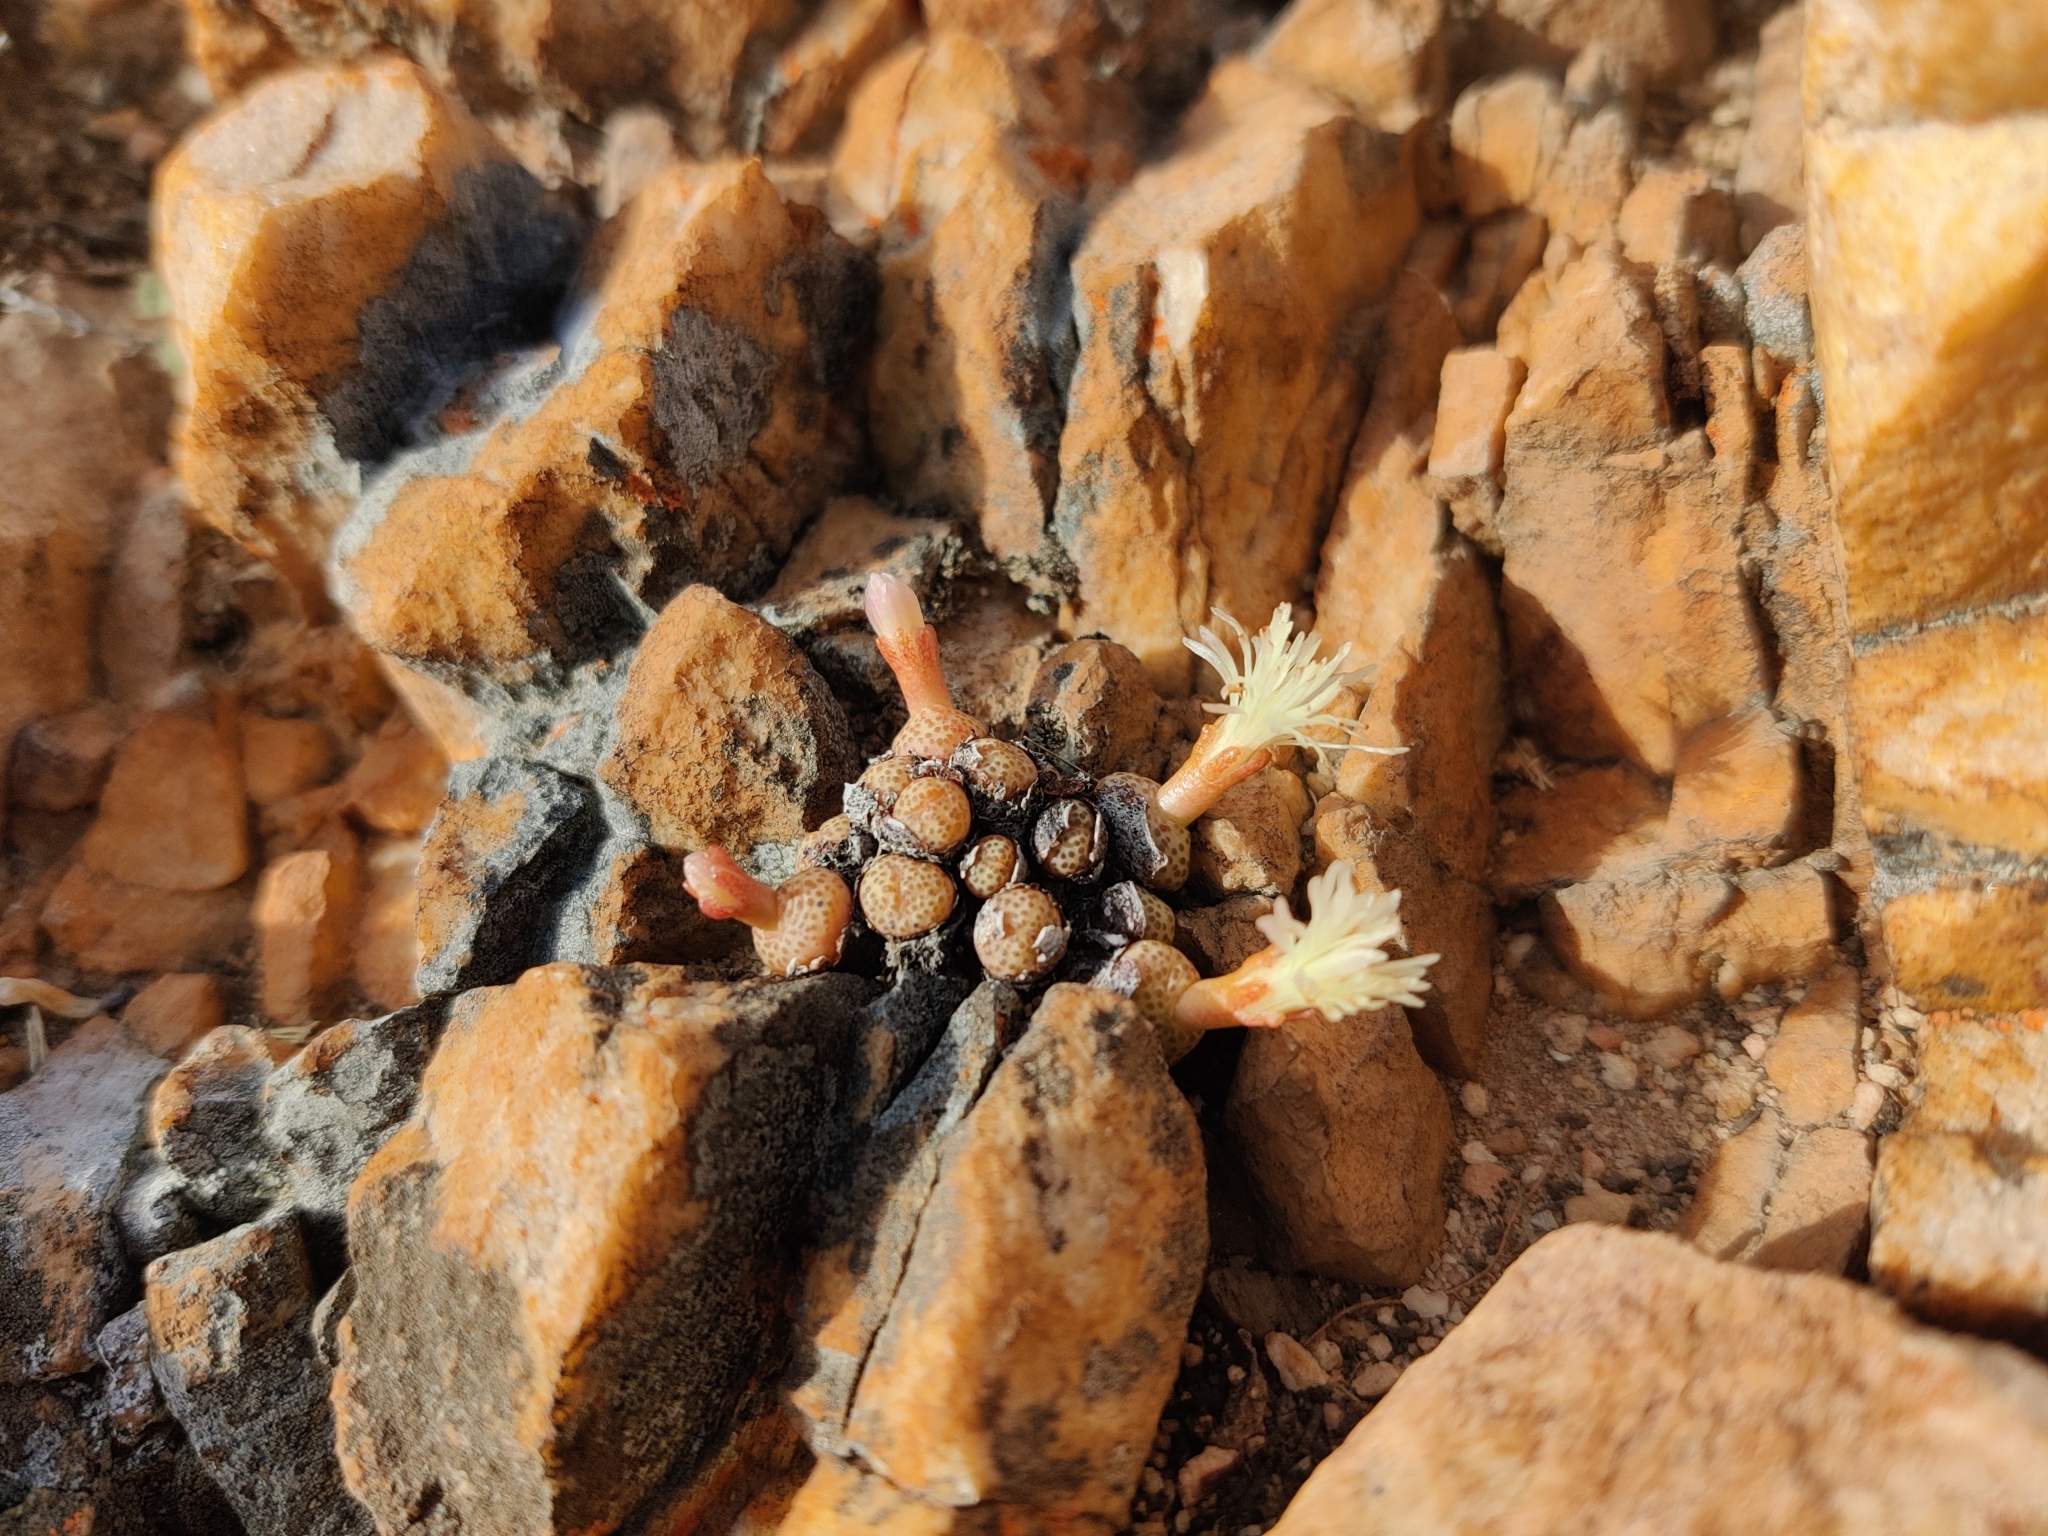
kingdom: Plantae
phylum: Tracheophyta
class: Magnoliopsida
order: Caryophyllales
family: Aizoaceae
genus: Conophytum
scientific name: Conophytum truncatum
